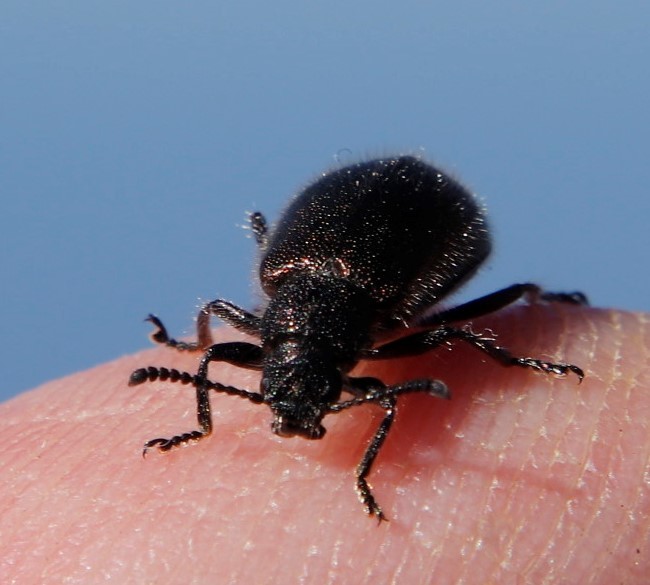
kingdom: Animalia
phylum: Arthropoda
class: Insecta
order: Coleoptera
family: Tenebrionidae
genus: Lagria
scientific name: Lagria villosa
